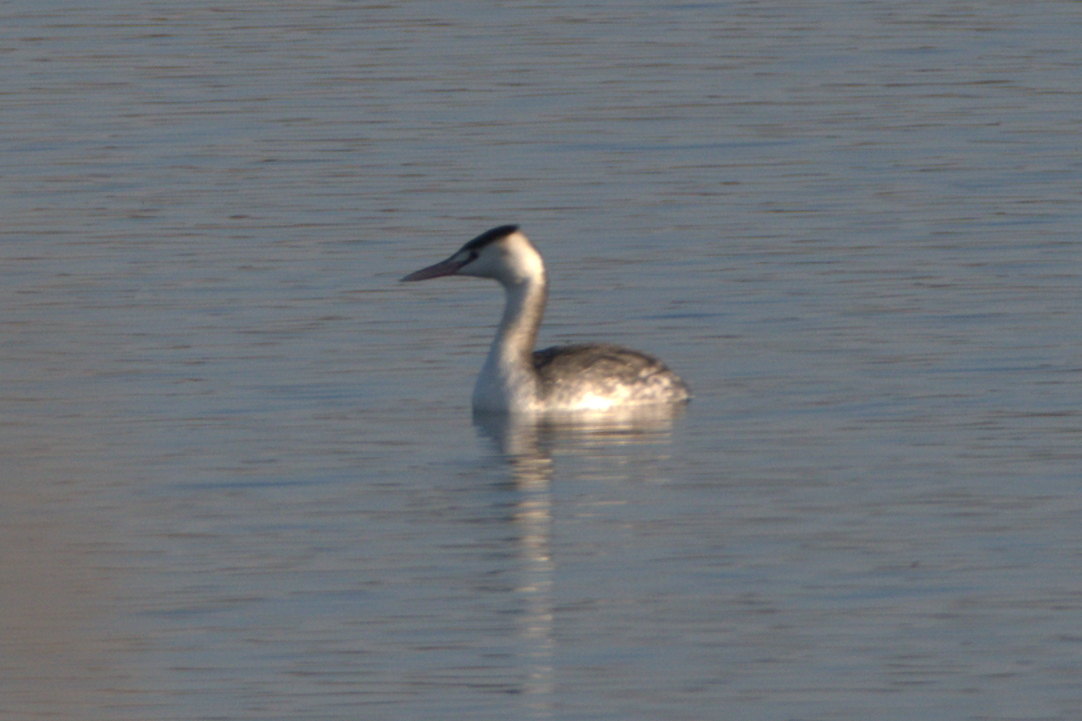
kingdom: Animalia
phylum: Chordata
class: Aves
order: Podicipediformes
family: Podicipedidae
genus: Podiceps
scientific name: Podiceps cristatus
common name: Great crested grebe
